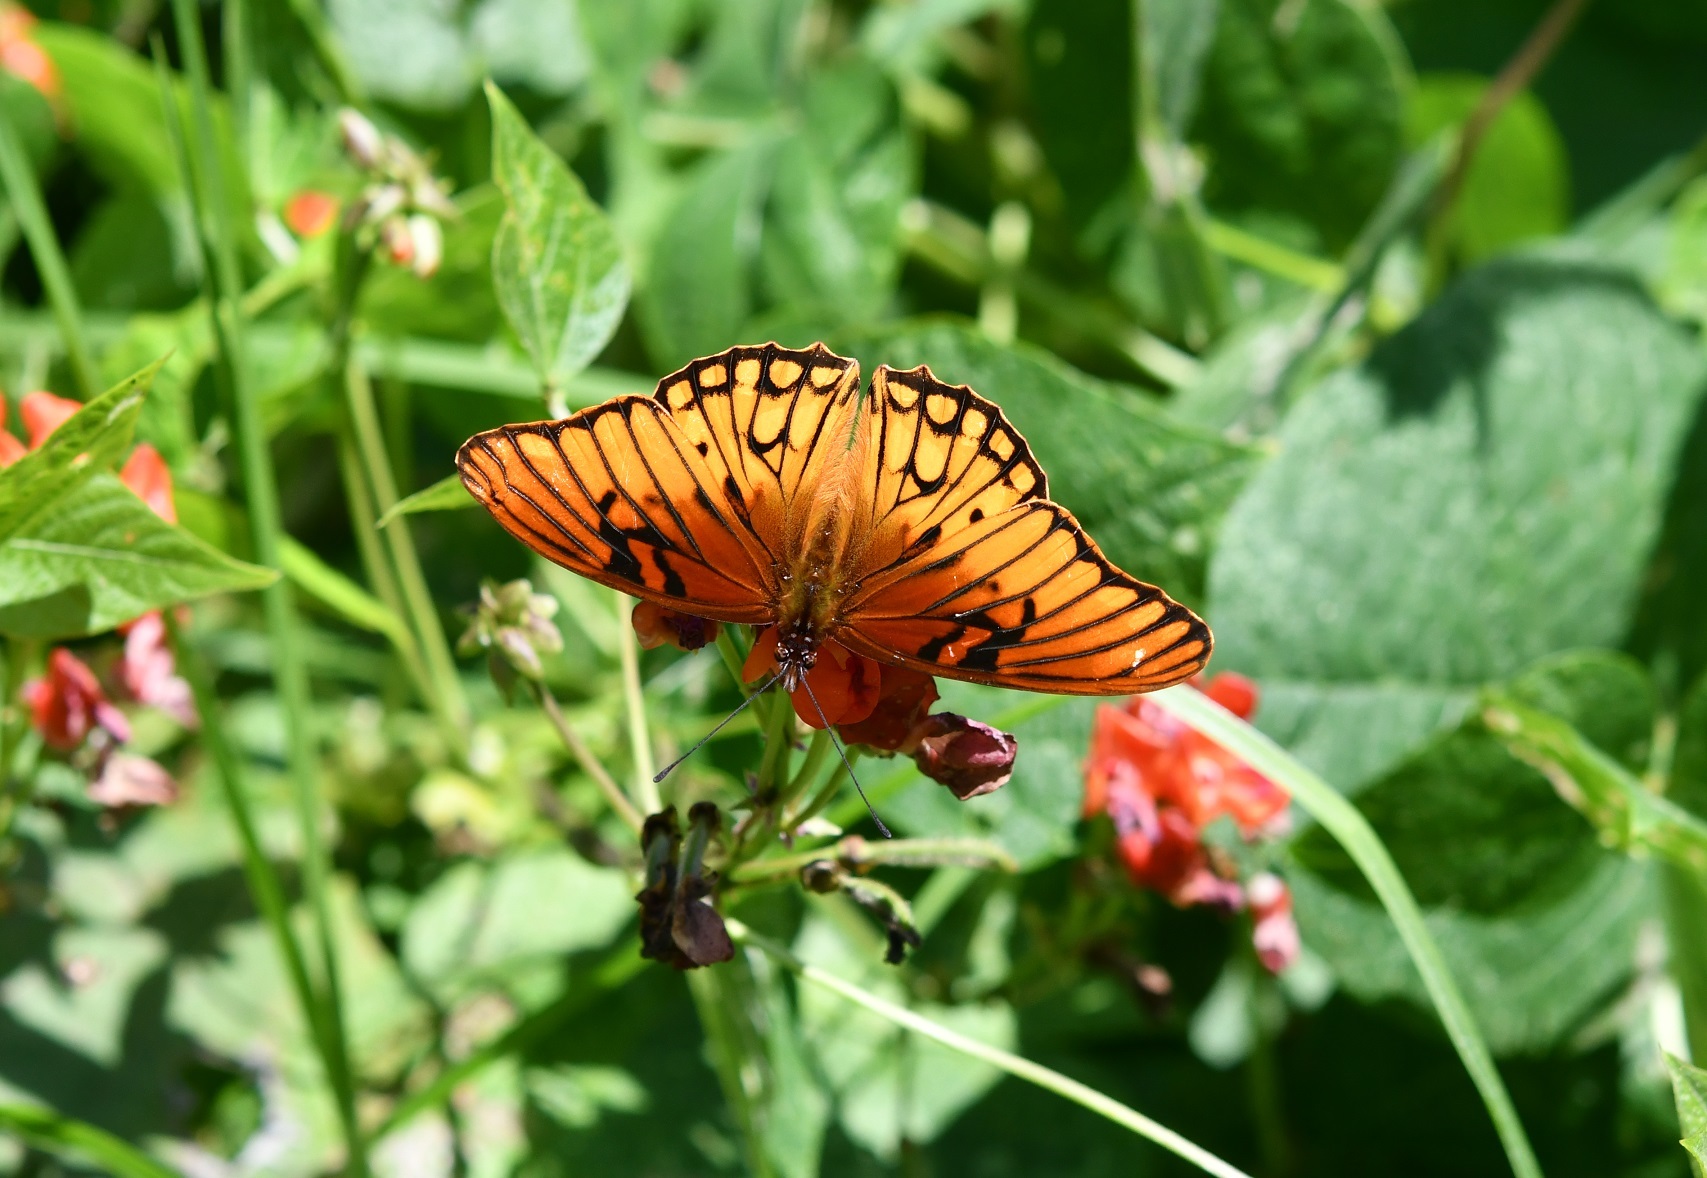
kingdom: Animalia
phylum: Arthropoda
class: Insecta
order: Lepidoptera
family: Nymphalidae
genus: Dione
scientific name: Dione moneta
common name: Mexican silverspot
